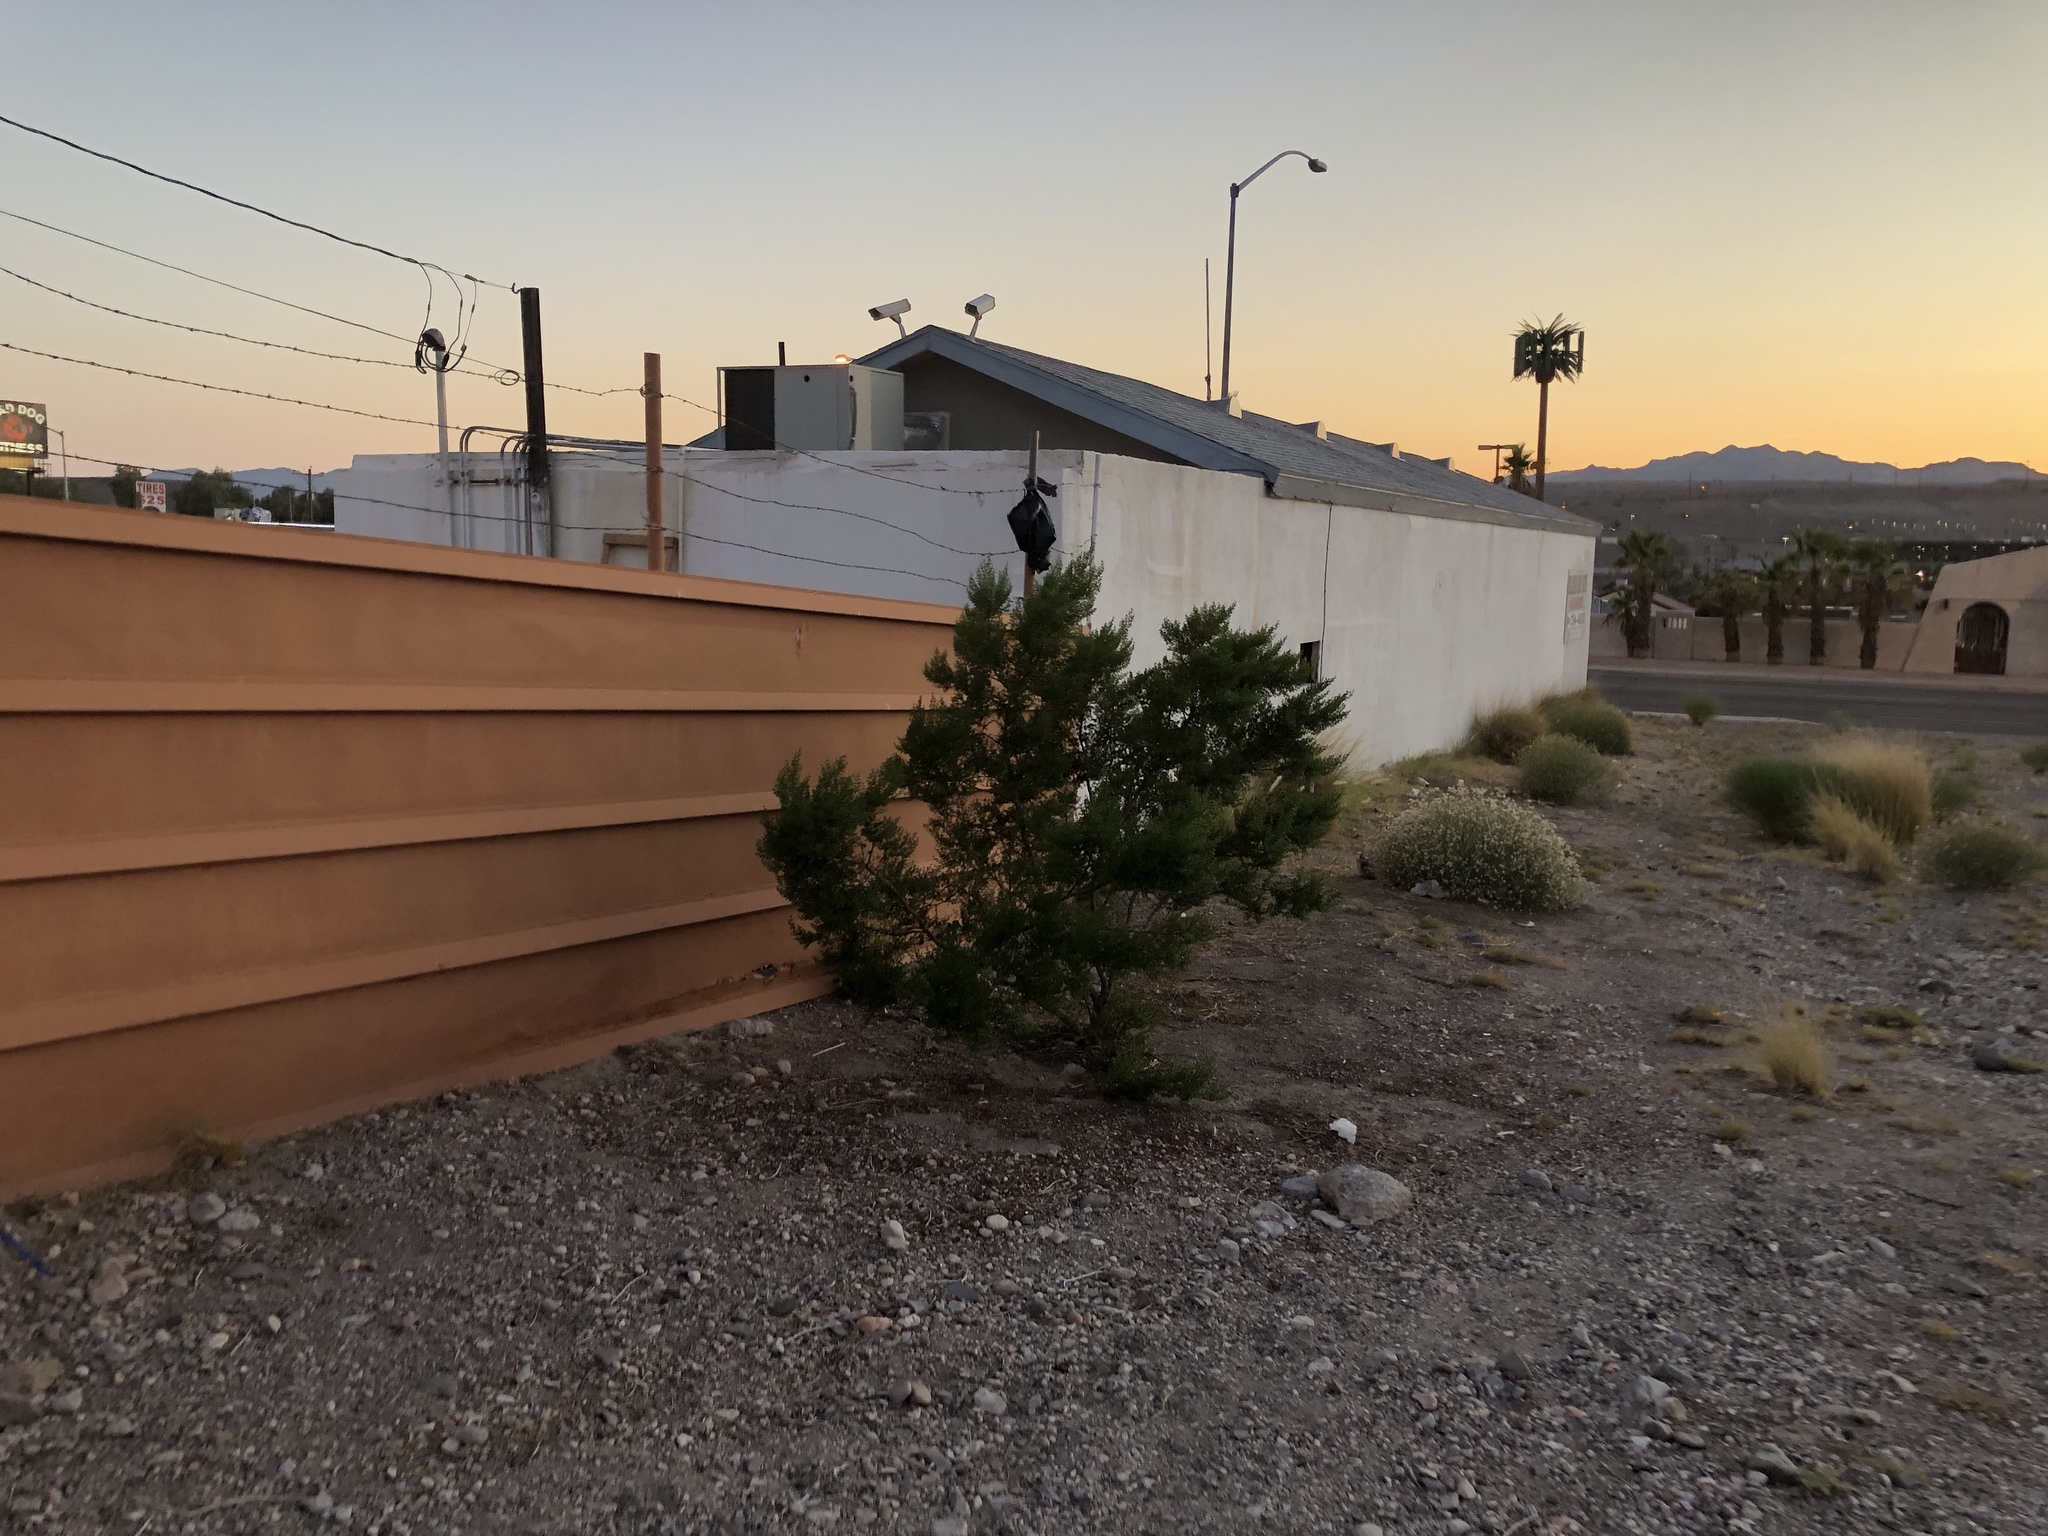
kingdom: Plantae
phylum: Tracheophyta
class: Magnoliopsida
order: Zygophyllales
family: Zygophyllaceae
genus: Larrea
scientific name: Larrea tridentata
